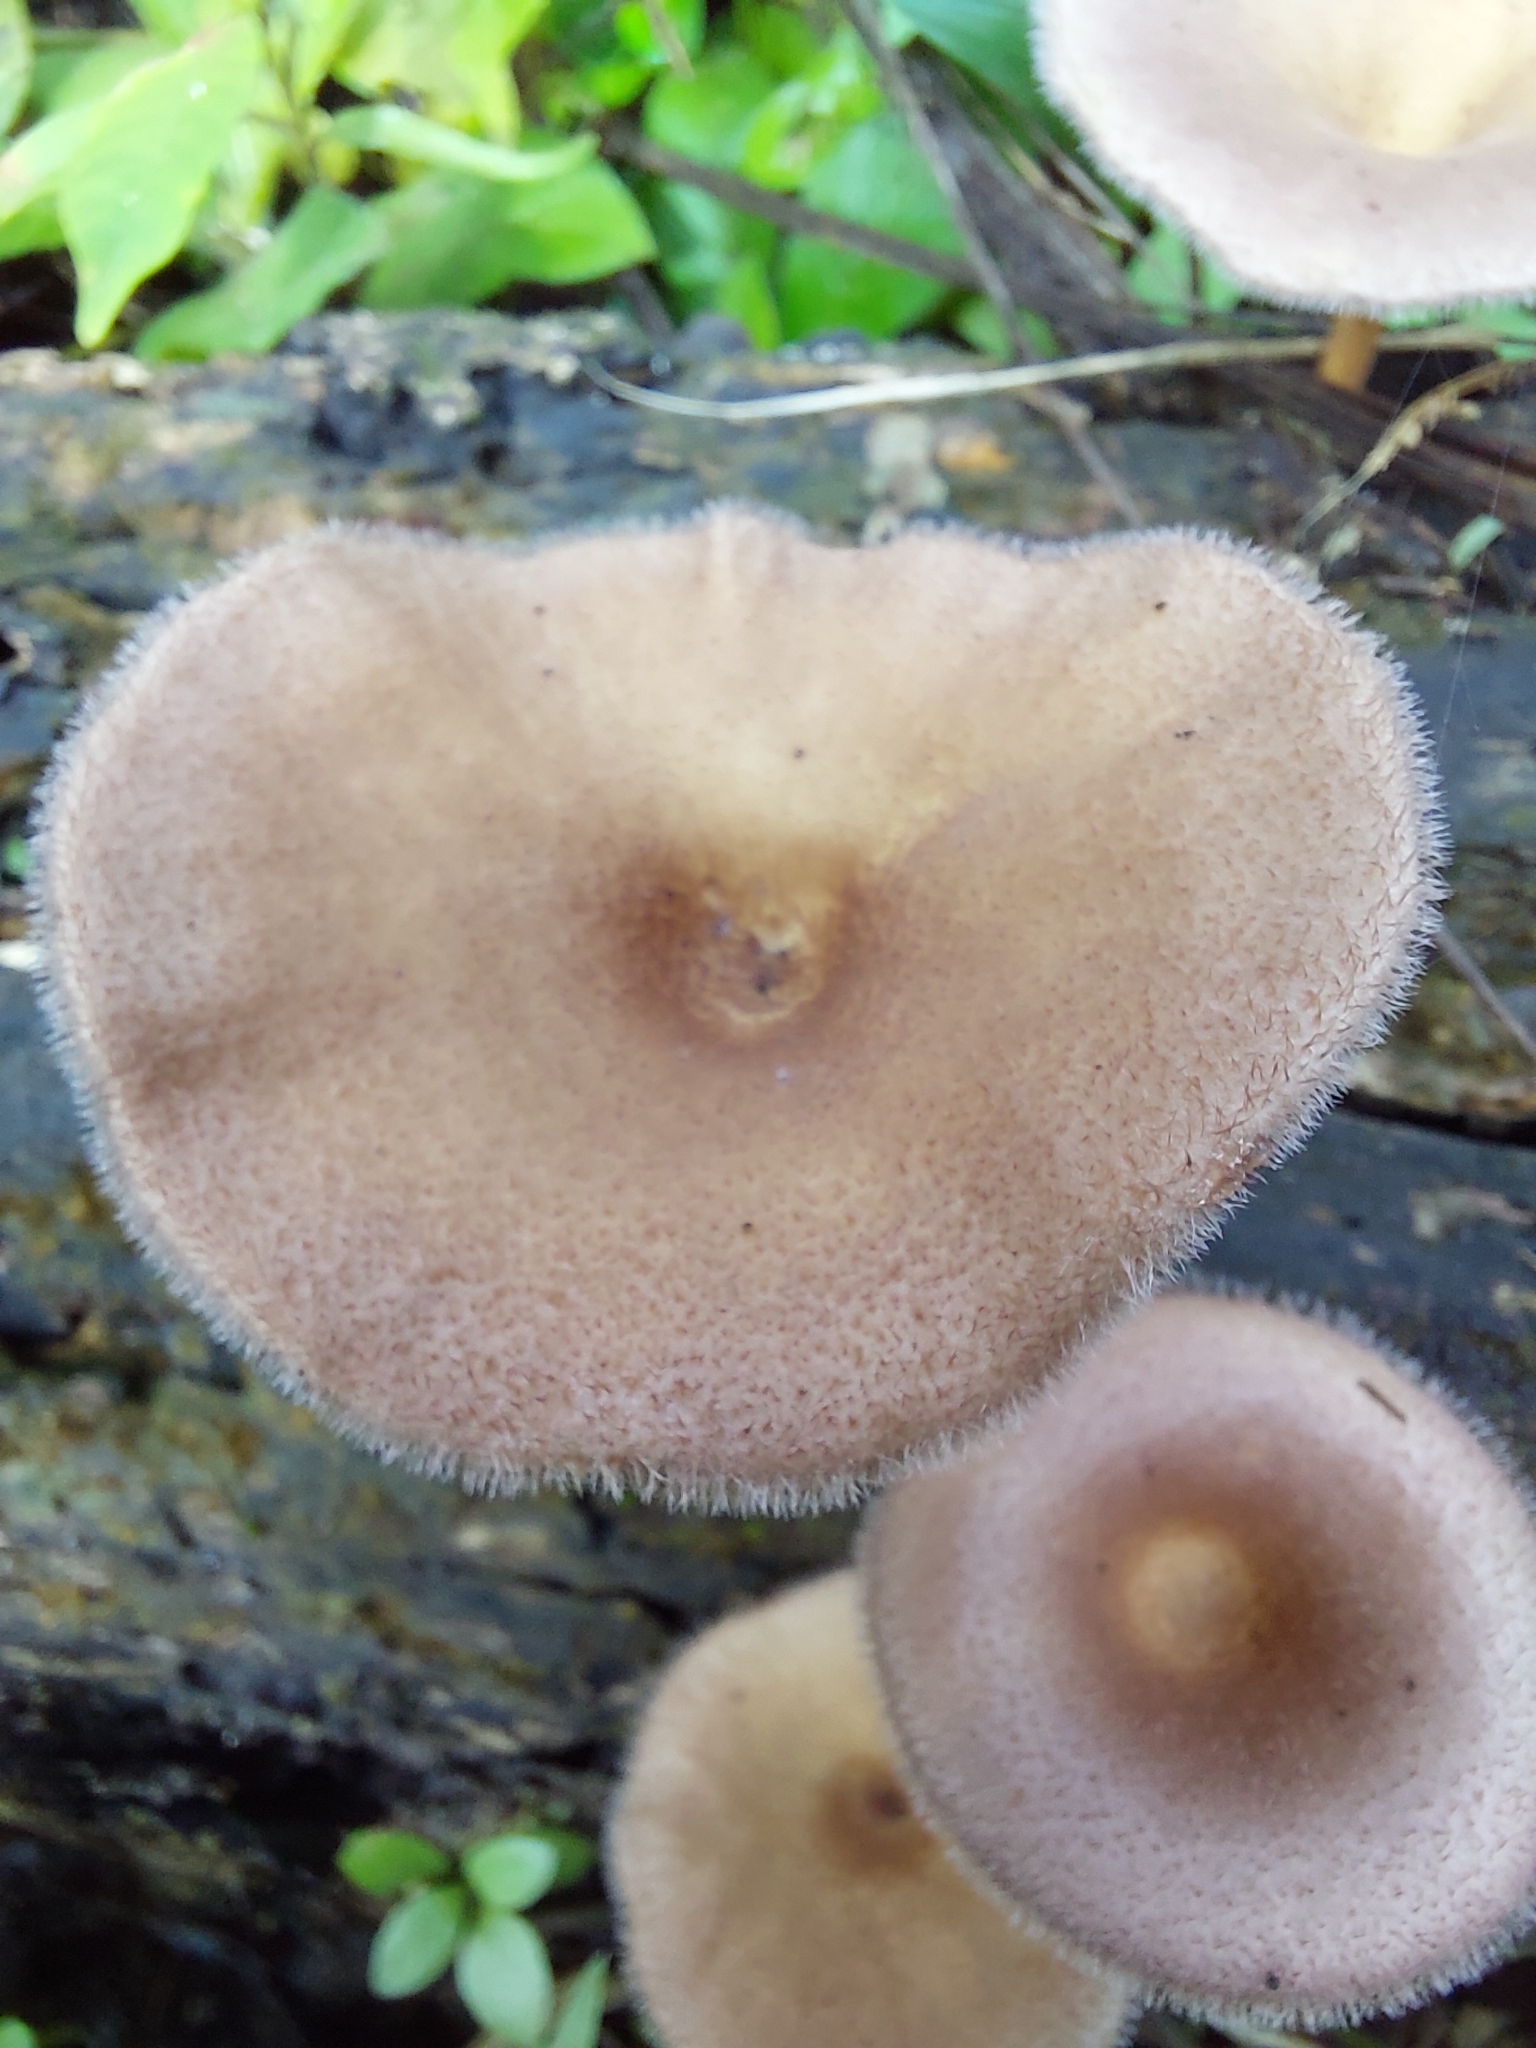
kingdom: Fungi
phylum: Basidiomycota
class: Agaricomycetes
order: Polyporales
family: Panaceae
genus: Panus
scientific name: Panus strigellus
